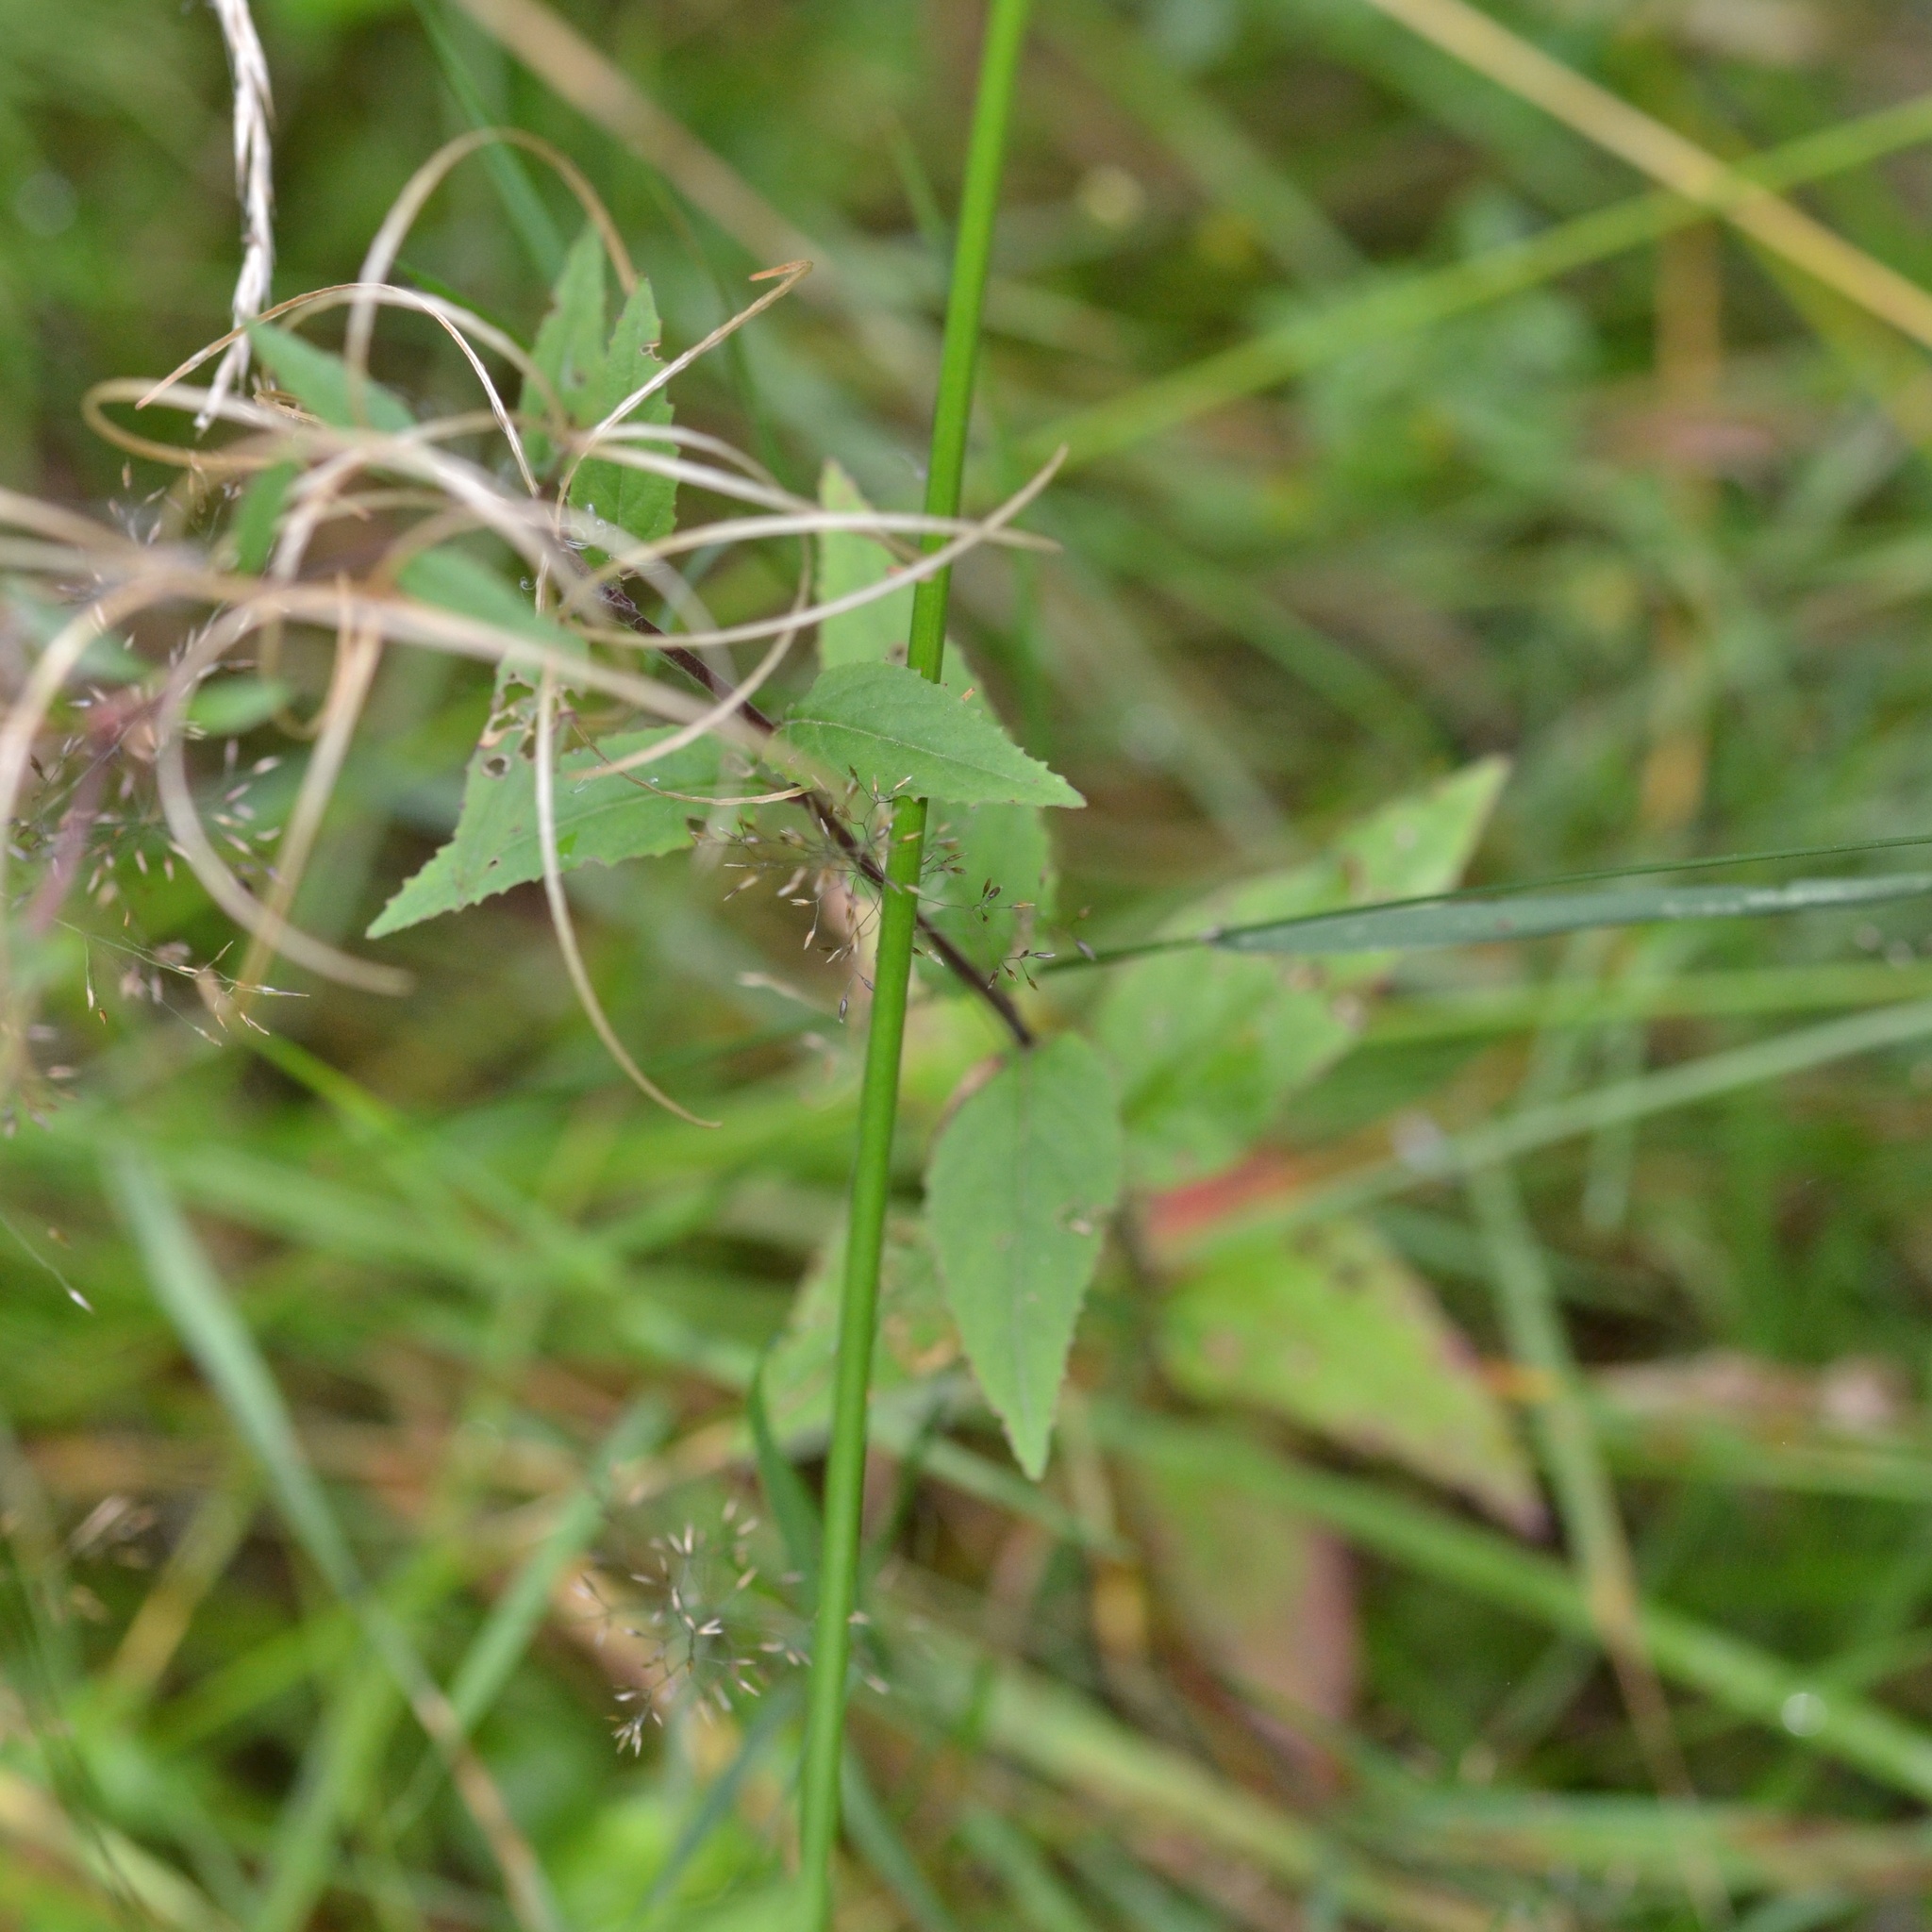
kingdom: Plantae
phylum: Tracheophyta
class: Magnoliopsida
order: Myrtales
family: Onagraceae
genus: Epilobium
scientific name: Epilobium montanum
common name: Broad-leaved willowherb
